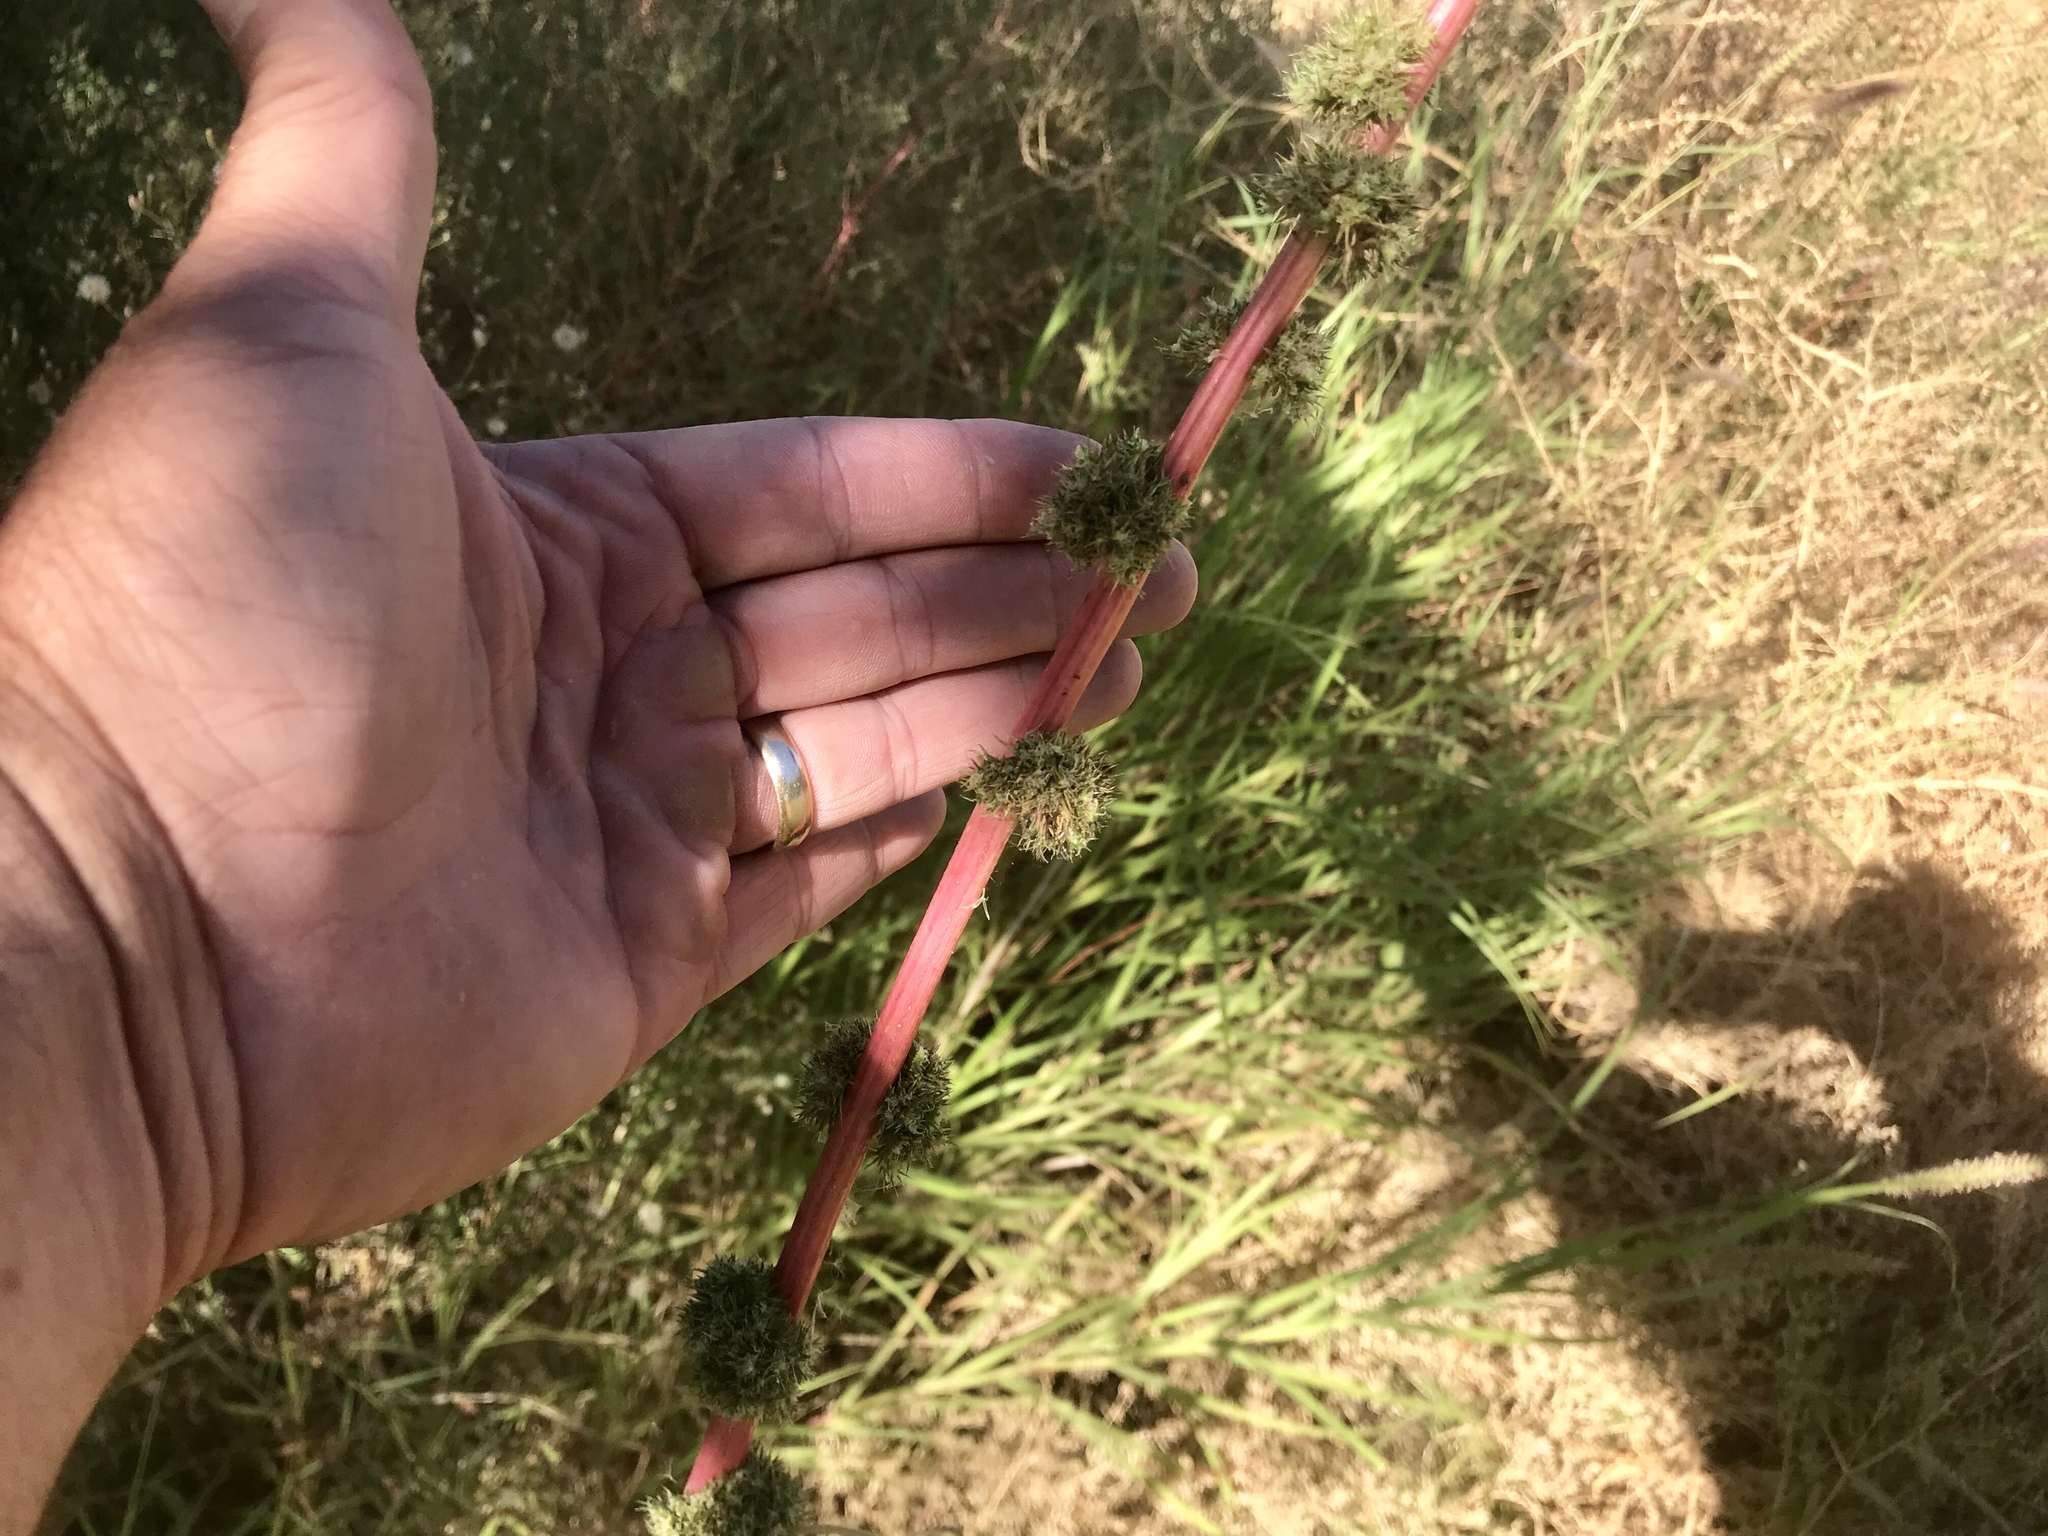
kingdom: Plantae
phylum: Tracheophyta
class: Magnoliopsida
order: Caryophyllales
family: Amaranthaceae
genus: Amaranthus
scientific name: Amaranthus palmeri
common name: Dioecious amaranth
